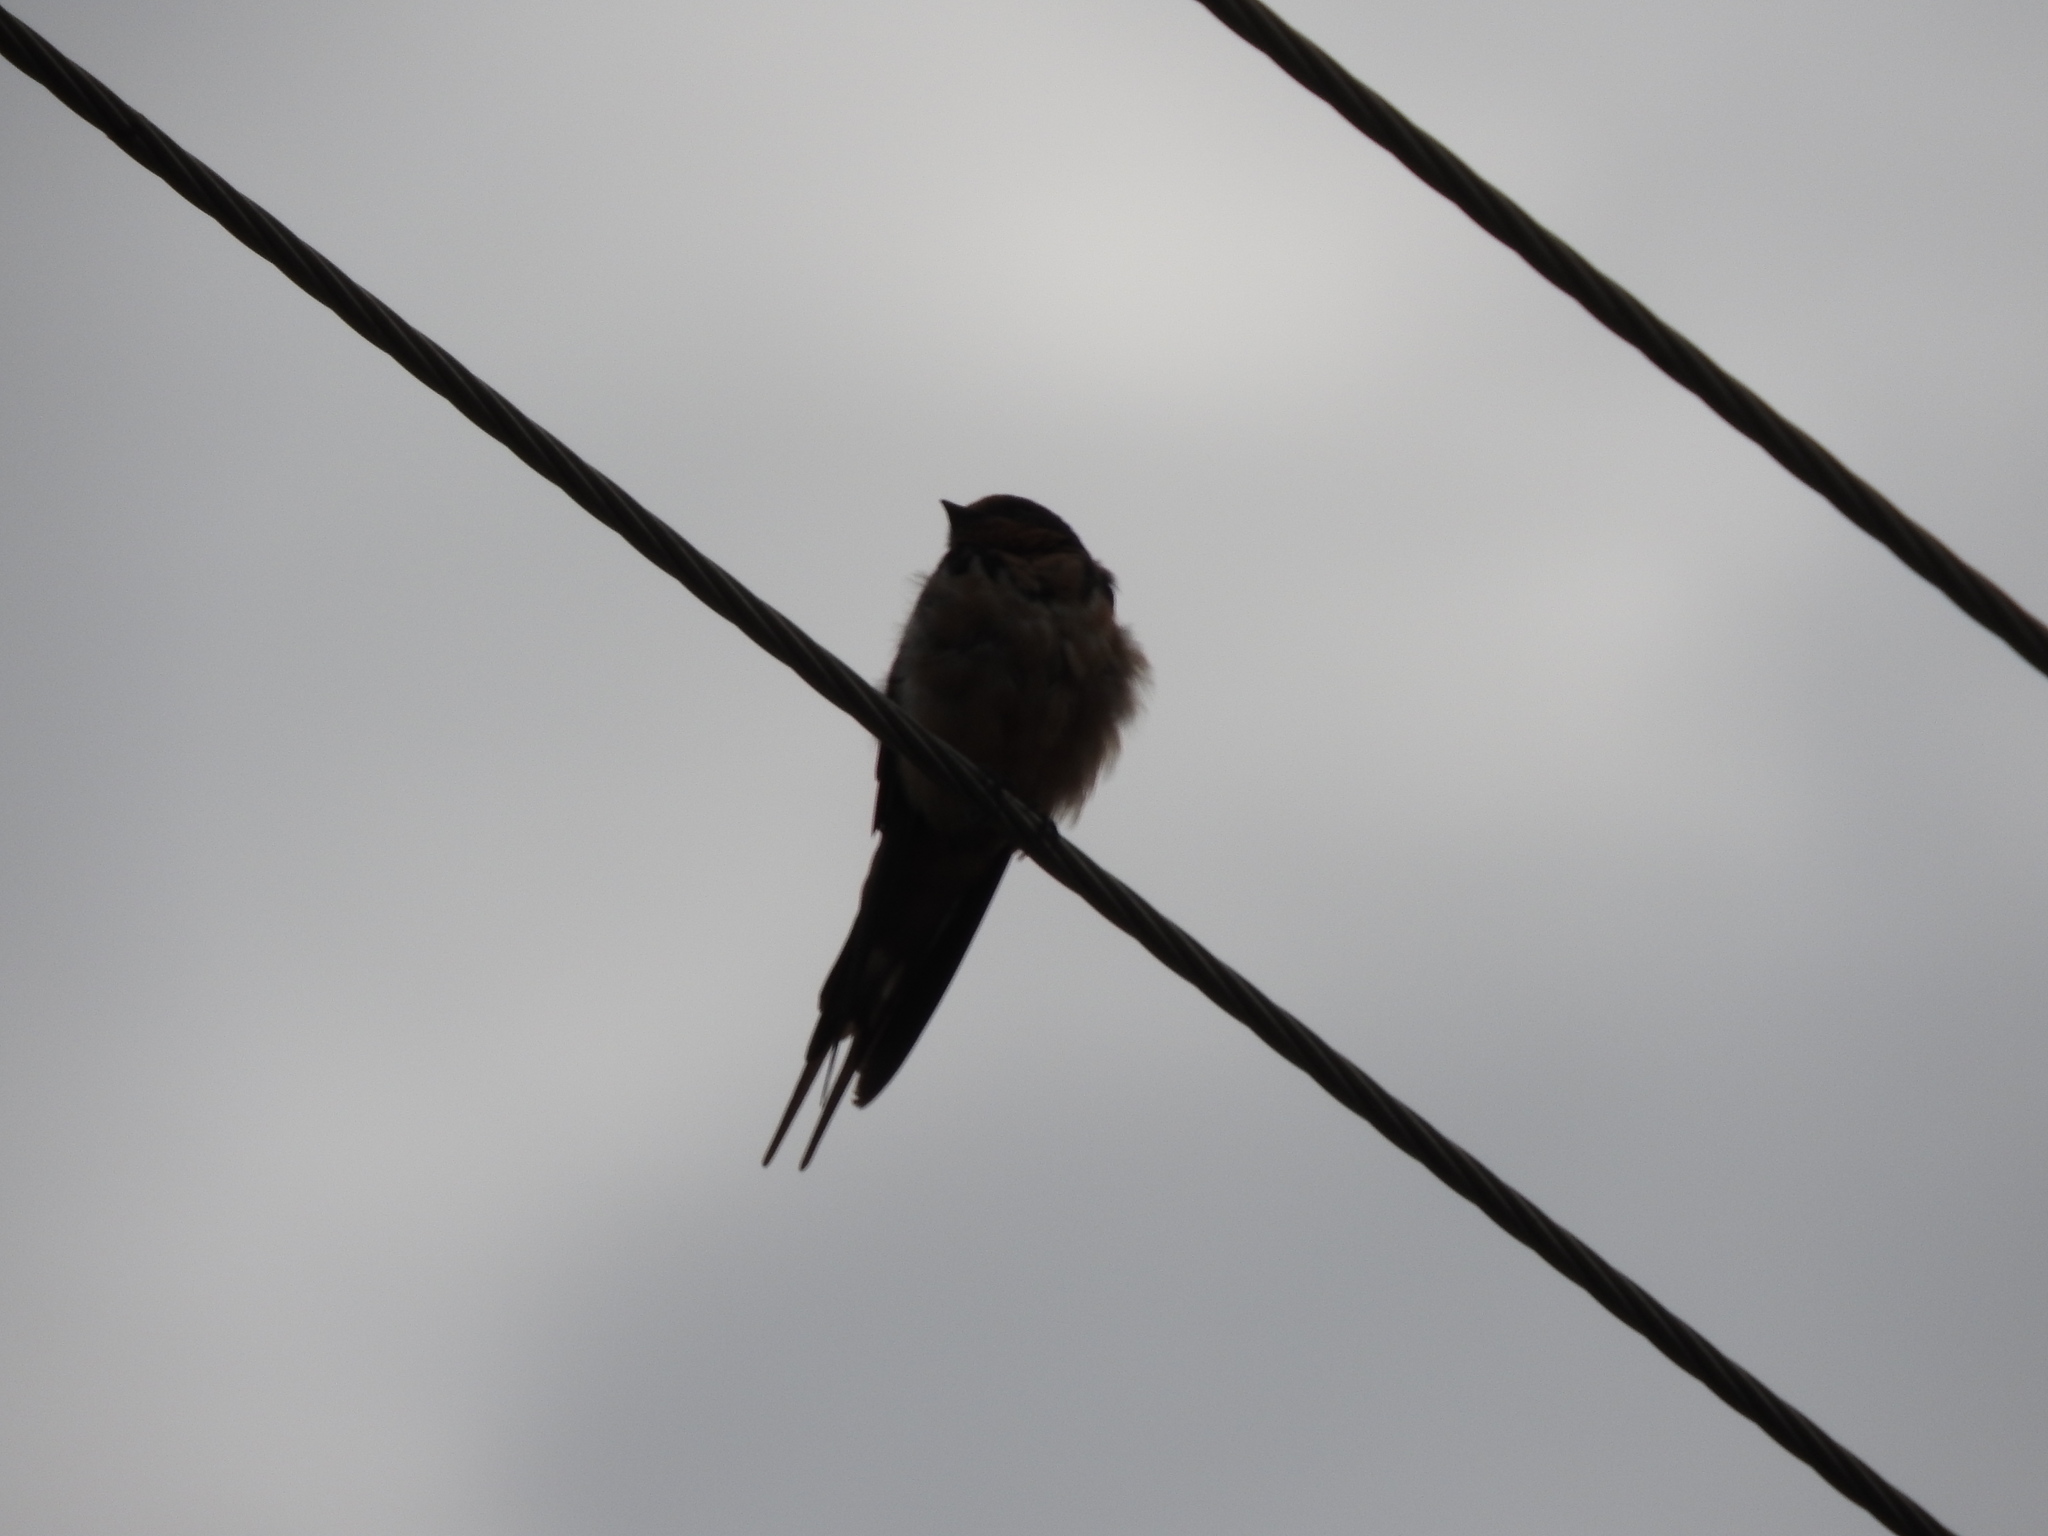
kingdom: Animalia
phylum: Chordata
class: Aves
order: Passeriformes
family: Hirundinidae
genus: Hirundo
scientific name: Hirundo rustica
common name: Barn swallow
